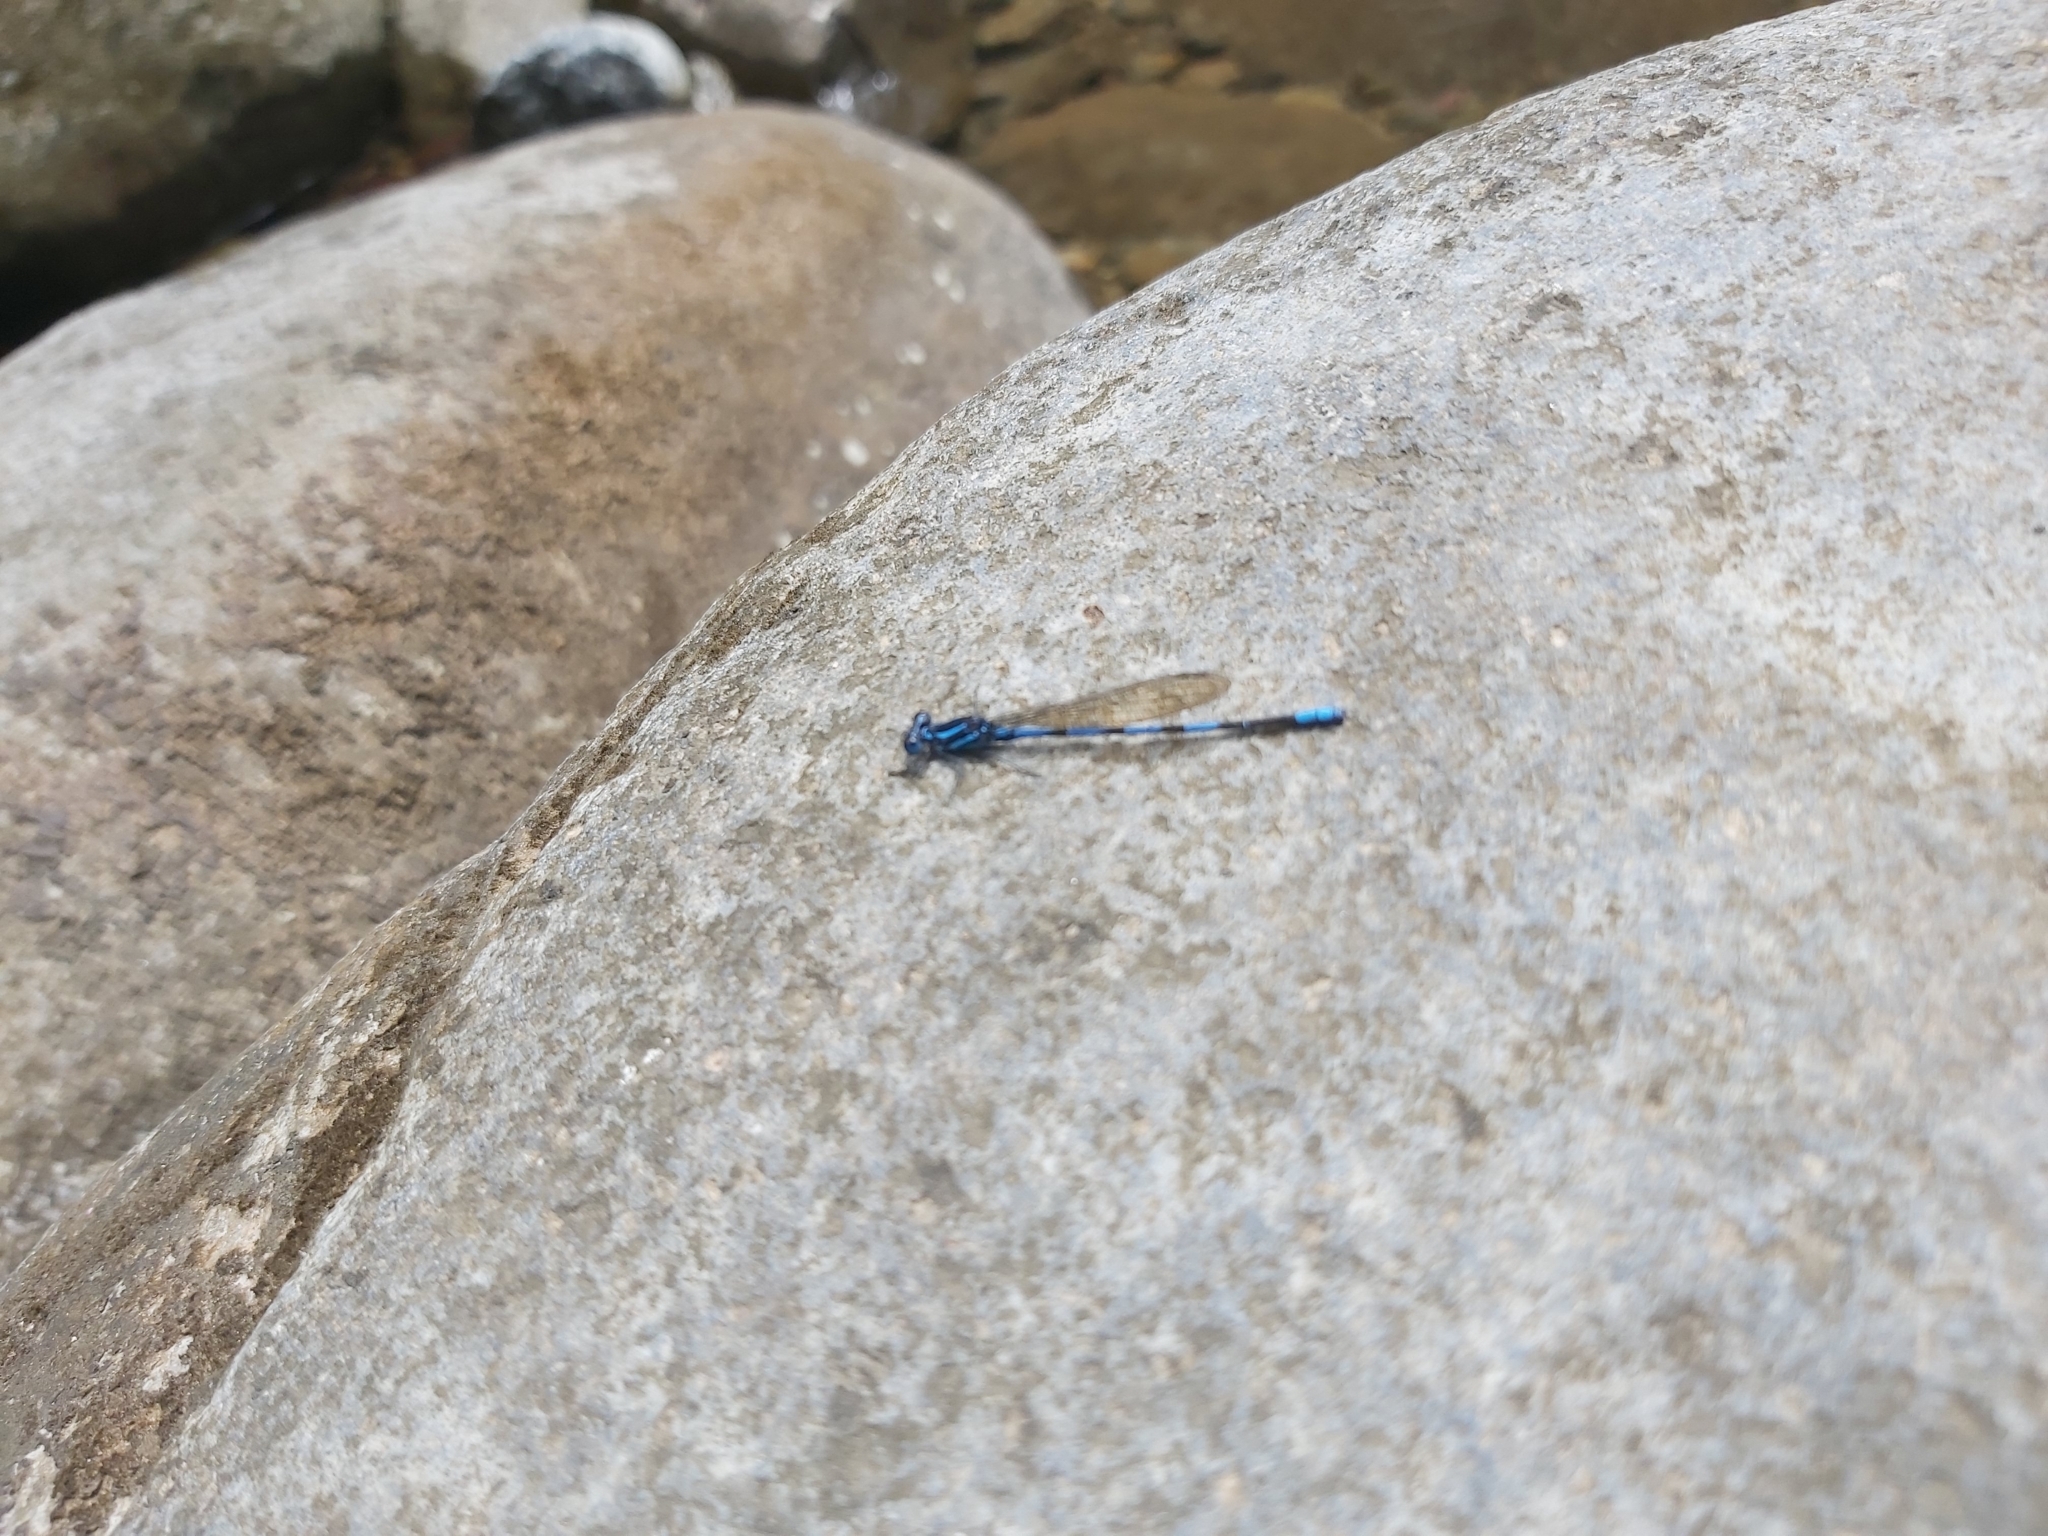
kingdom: Animalia
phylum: Arthropoda
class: Insecta
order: Odonata
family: Coenagrionidae
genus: Argia
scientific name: Argia concinna
